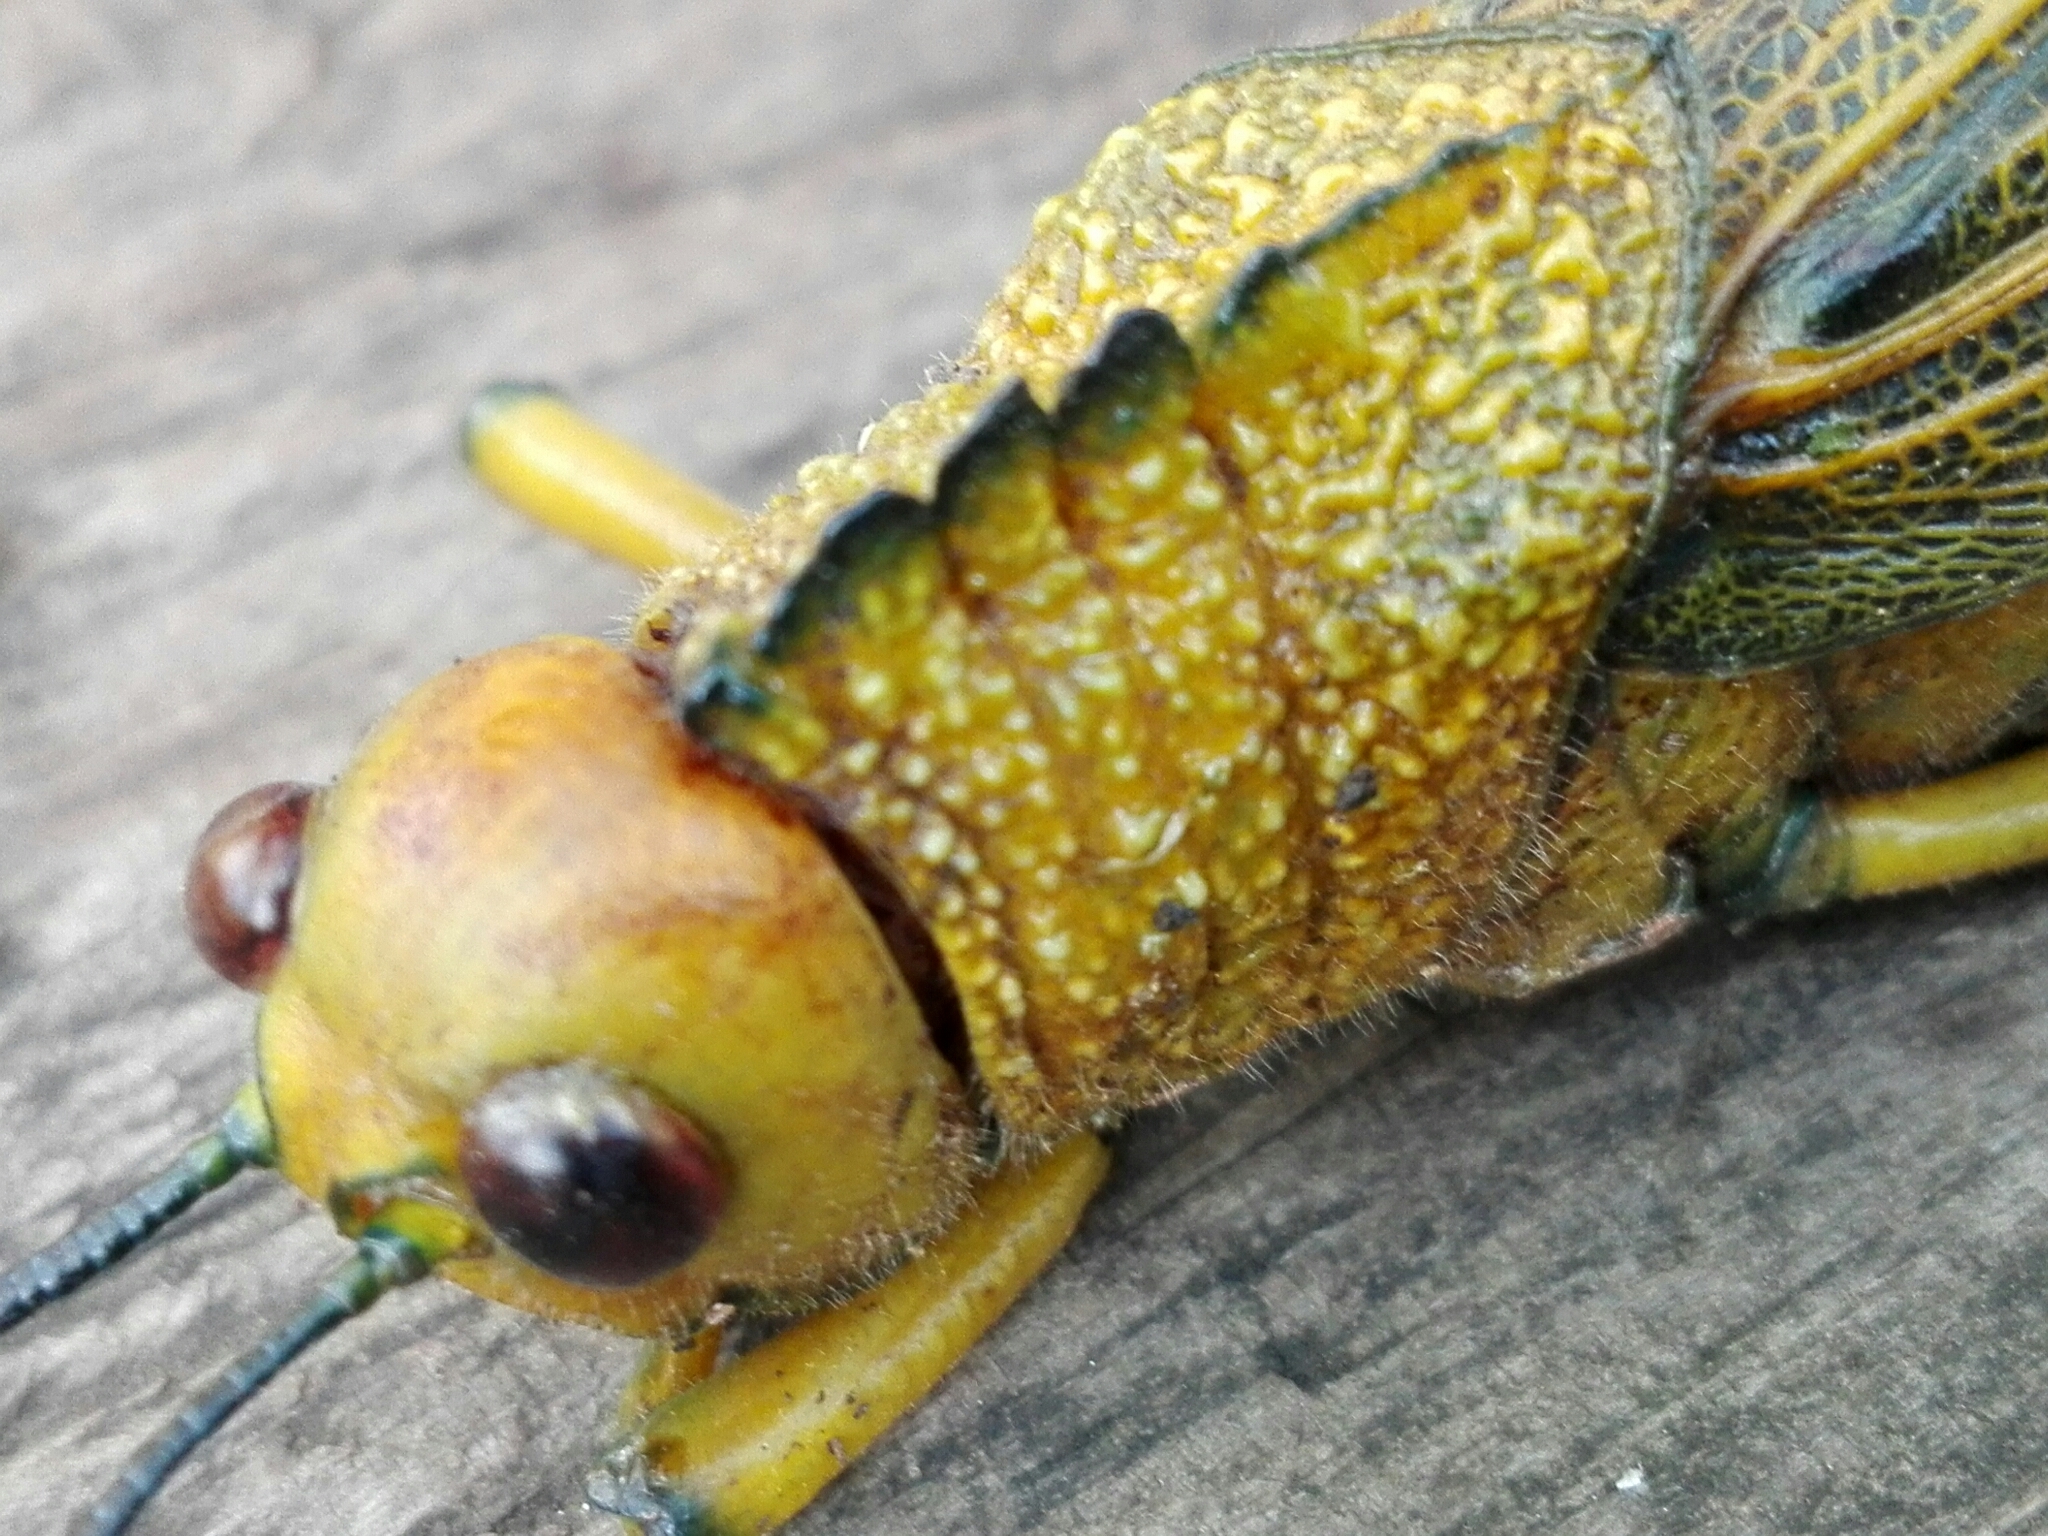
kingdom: Animalia
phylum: Arthropoda
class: Insecta
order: Orthoptera
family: Romaleidae
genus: Tropidacris
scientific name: Tropidacris cristata
